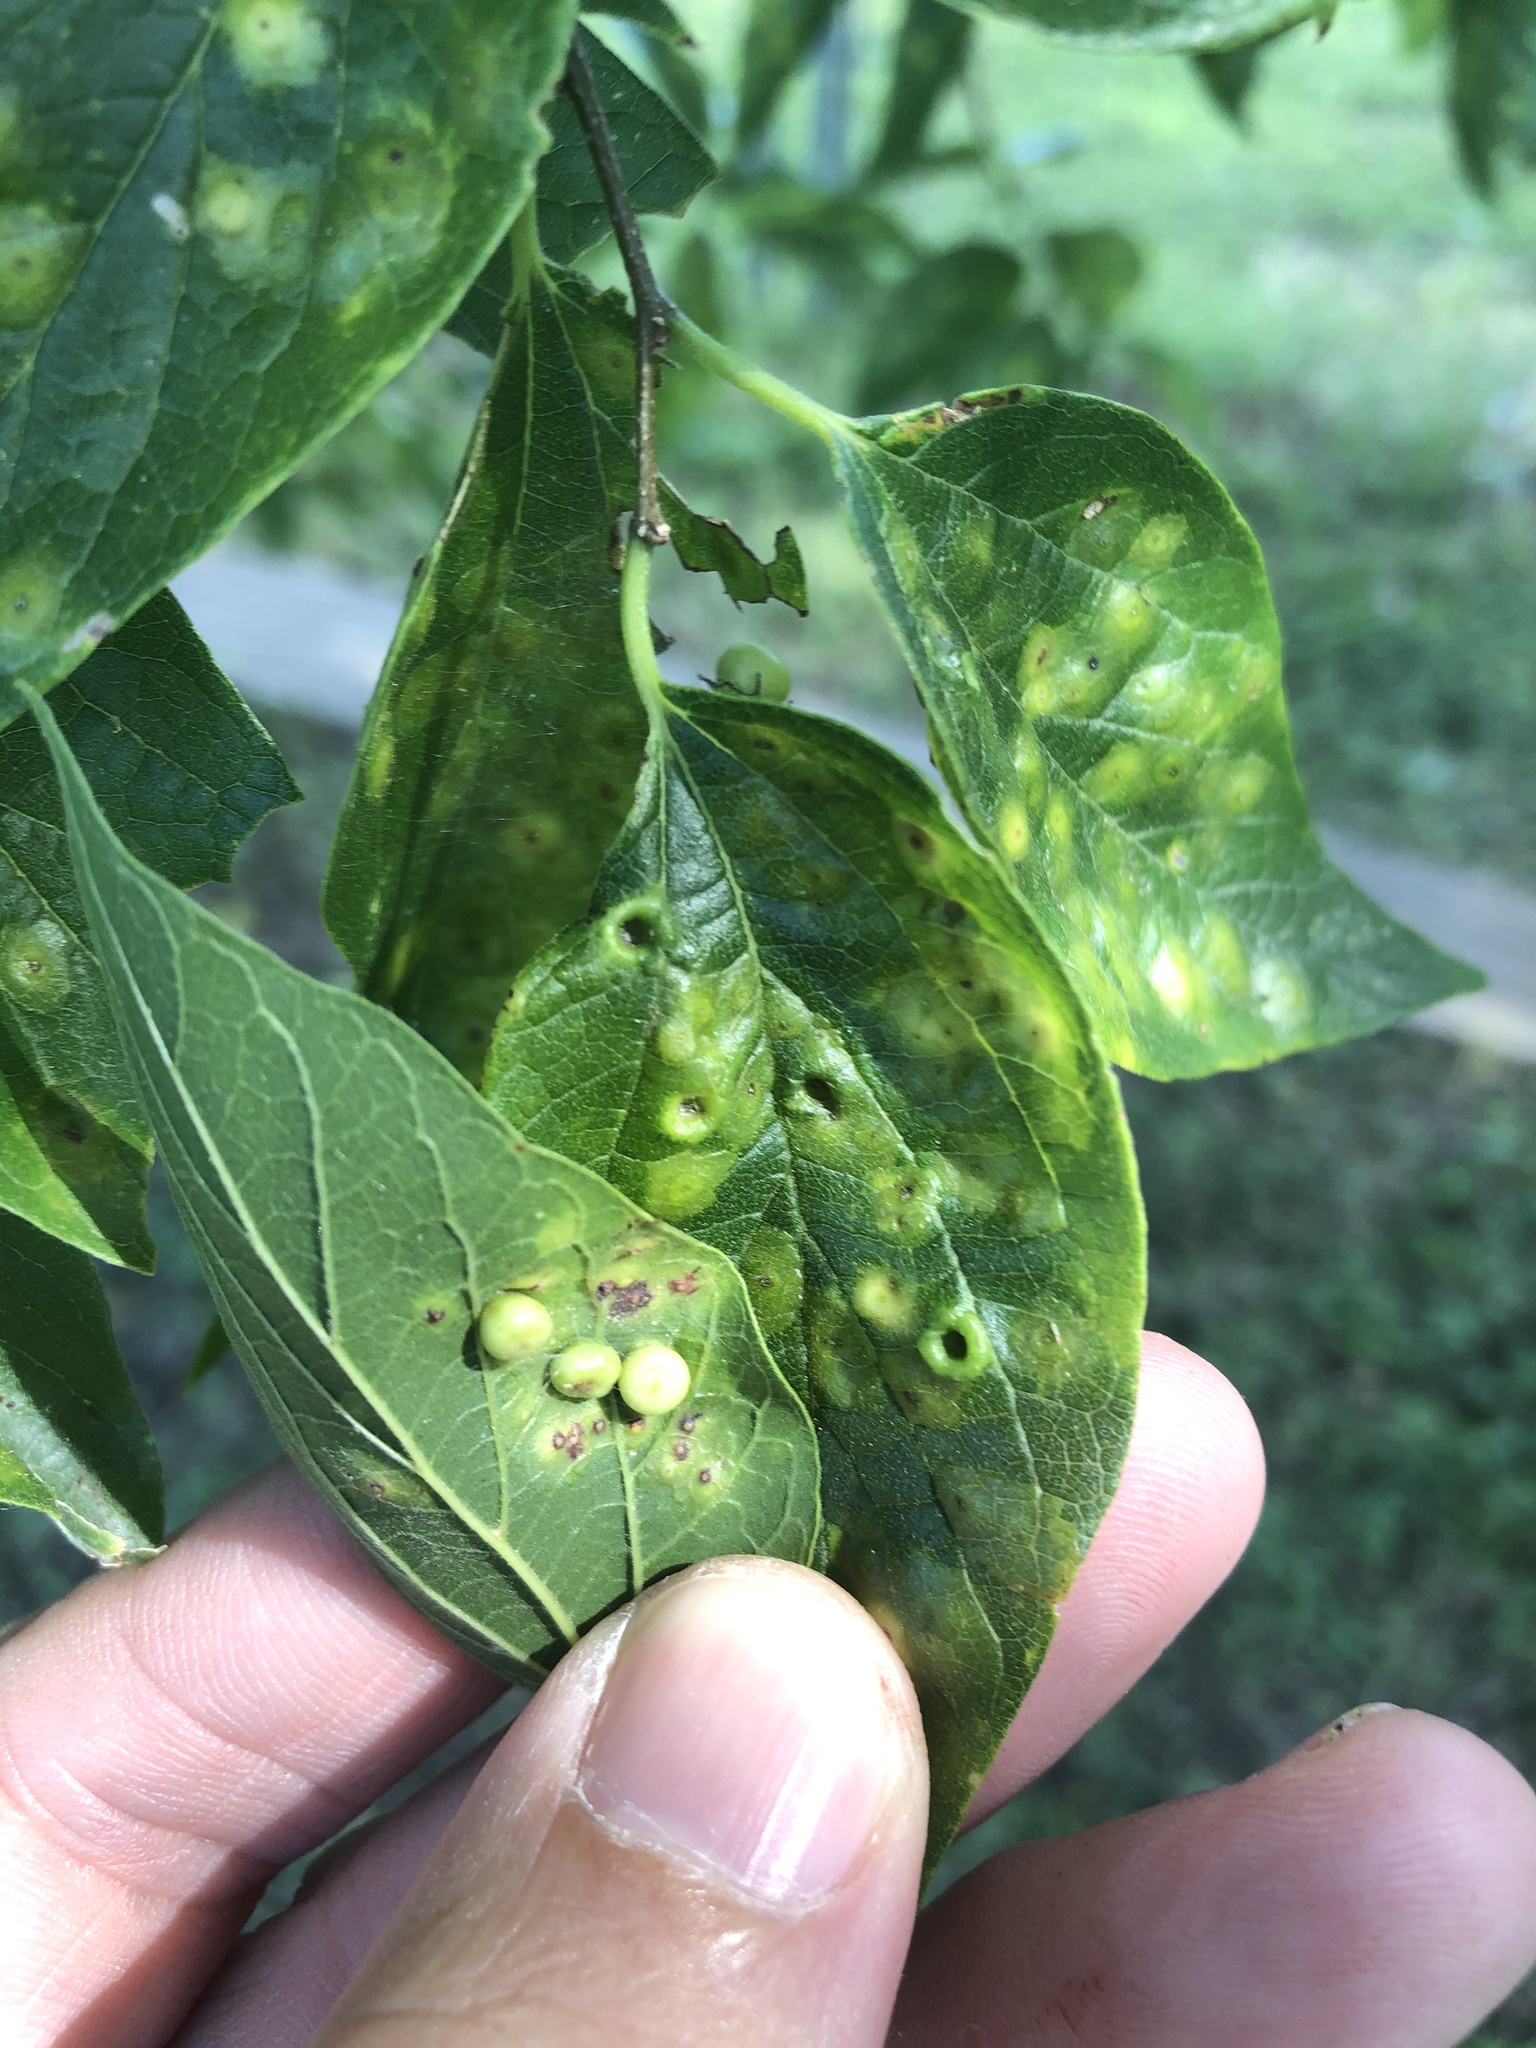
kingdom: Animalia
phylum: Arthropoda
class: Insecta
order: Hemiptera
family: Aphalaridae
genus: Pachypsylla
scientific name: Pachypsylla celtidismamma
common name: Hackberry nipplegall psyllid
